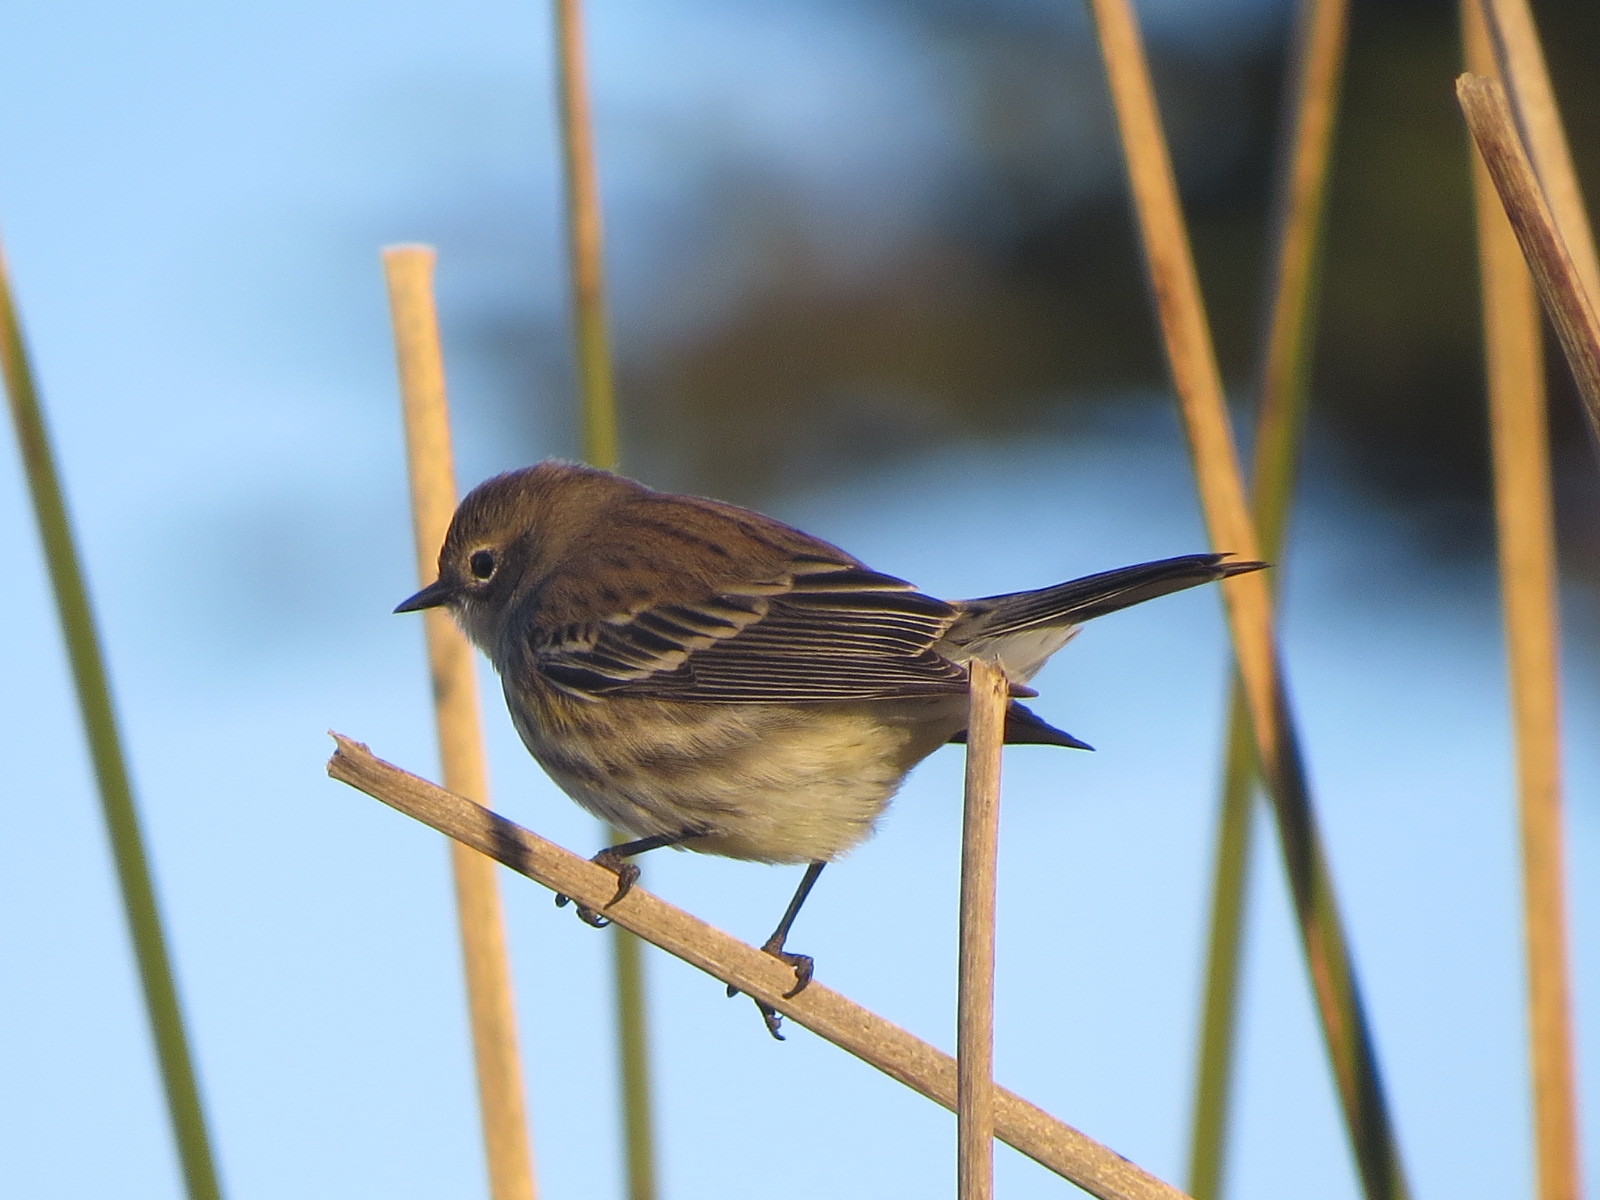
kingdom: Animalia
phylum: Chordata
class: Aves
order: Passeriformes
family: Parulidae
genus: Setophaga
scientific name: Setophaga coronata
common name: Myrtle warbler
